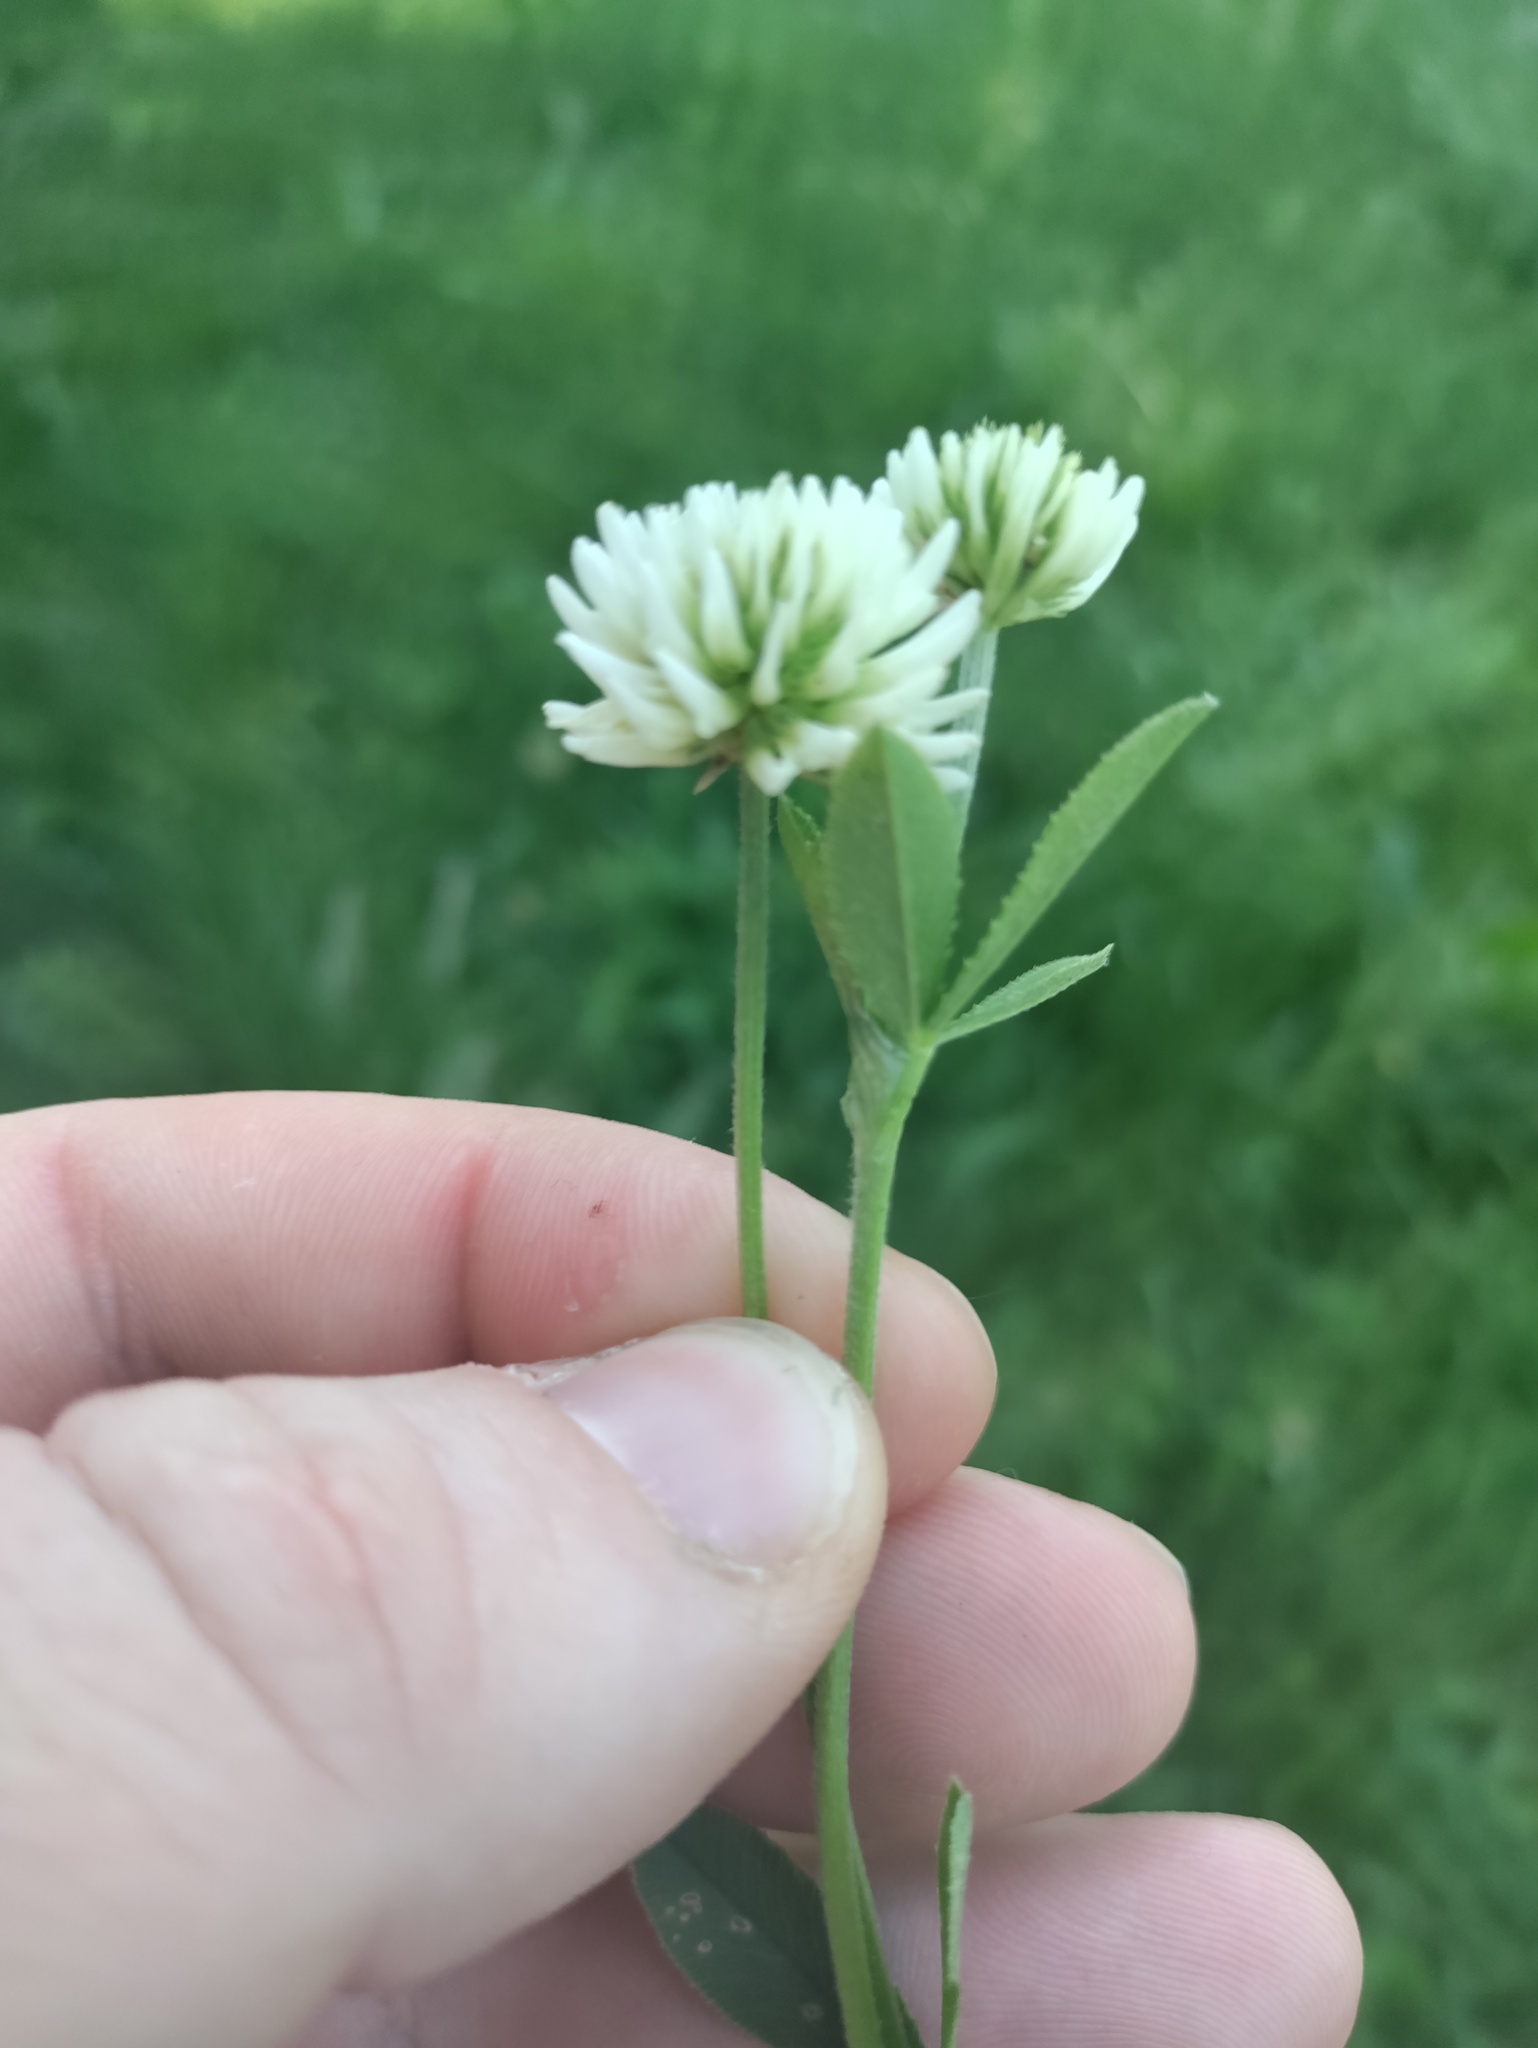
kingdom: Plantae
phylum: Tracheophyta
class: Magnoliopsida
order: Fabales
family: Fabaceae
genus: Trifolium
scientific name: Trifolium montanum
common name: Mountain clover
